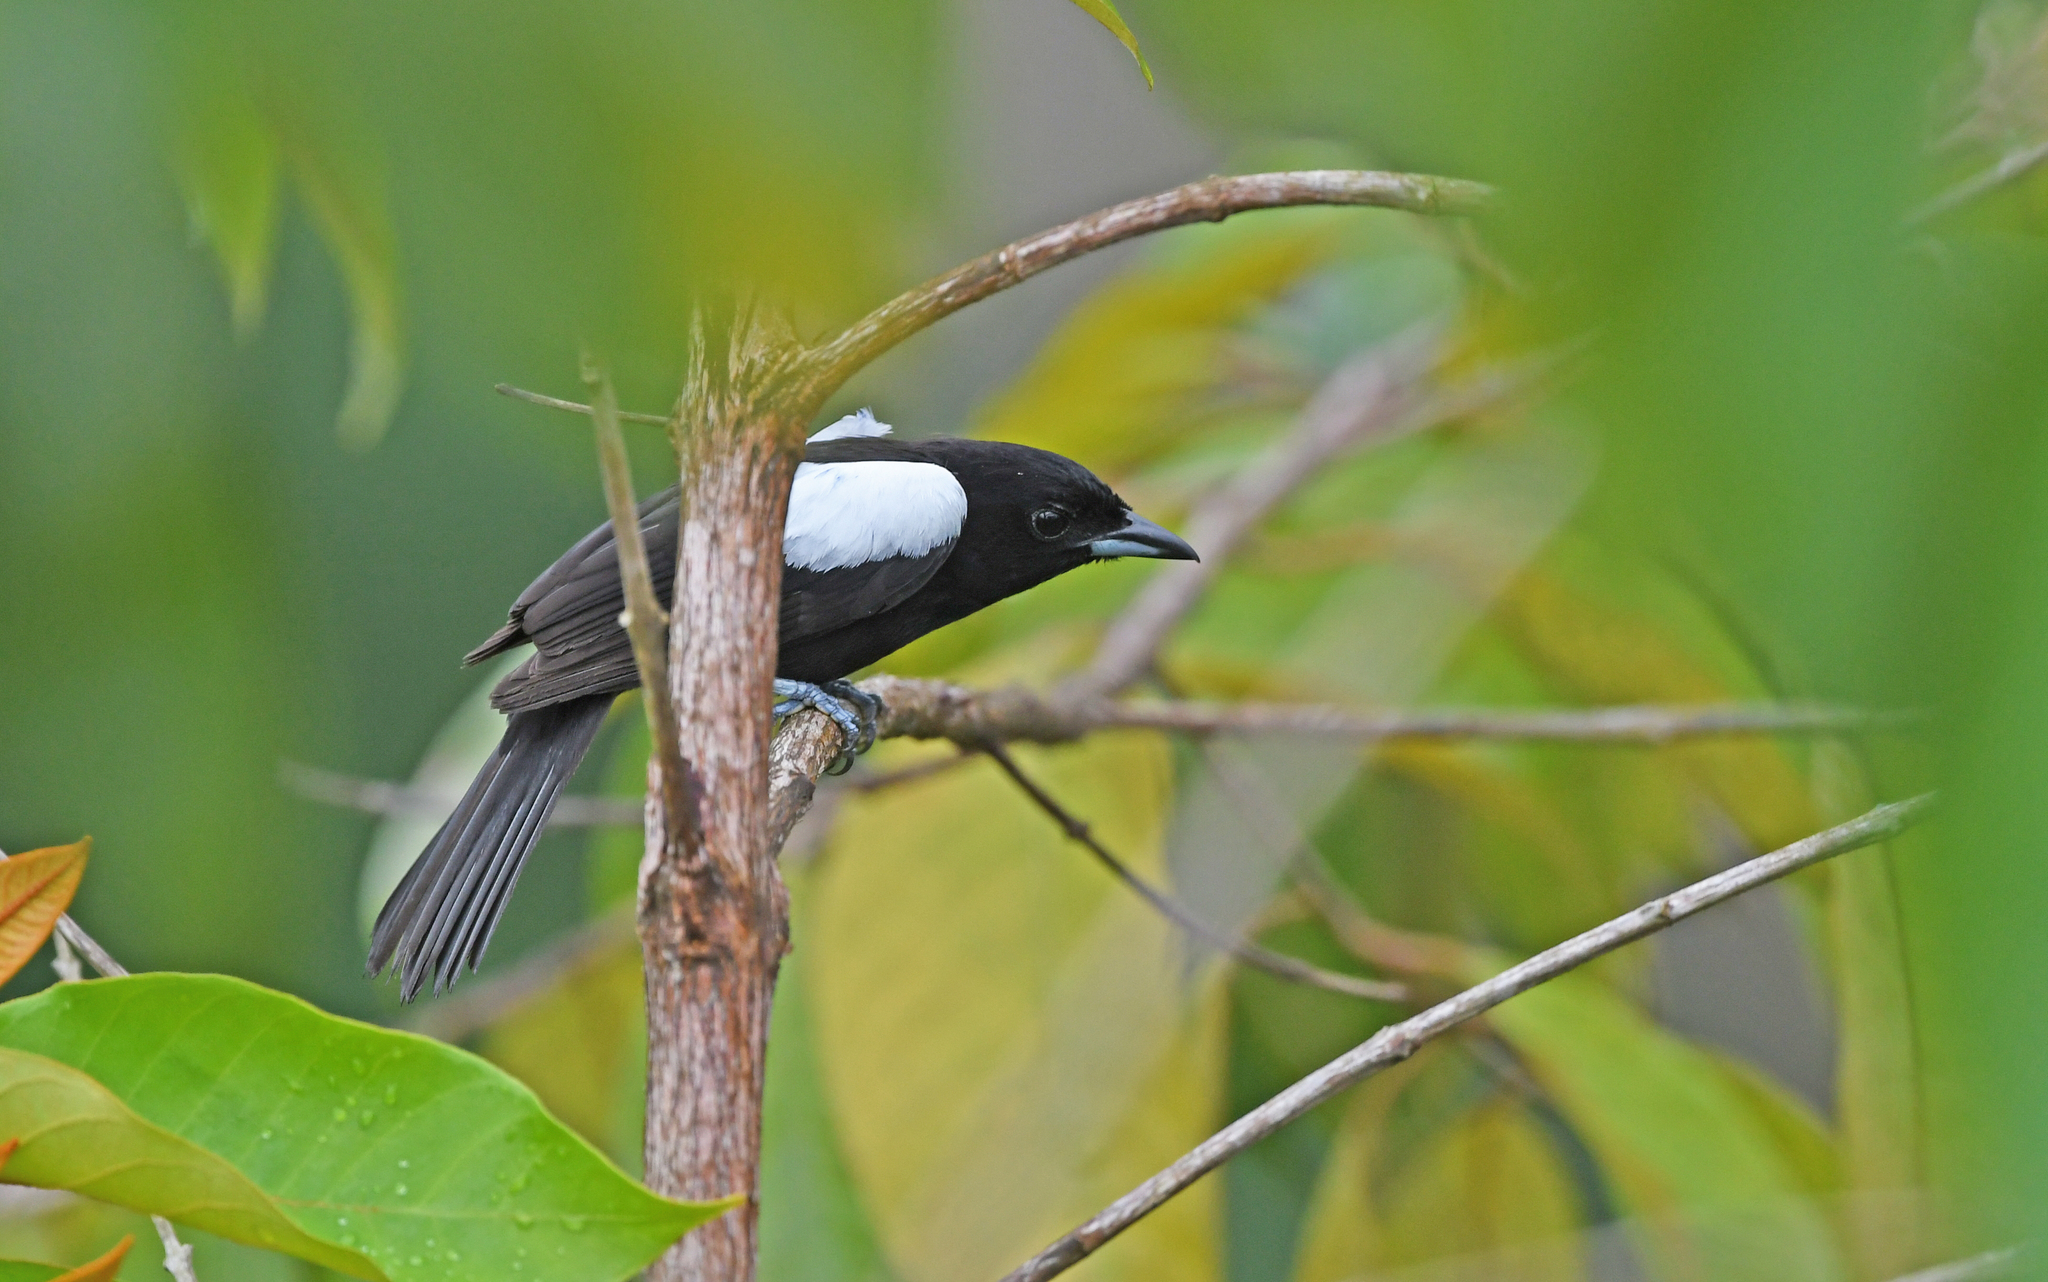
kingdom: Animalia
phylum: Chordata
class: Aves
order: Passeriformes
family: Thraupidae
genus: Loriotus
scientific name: Loriotus luctuosus
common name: White-shouldered tanager
